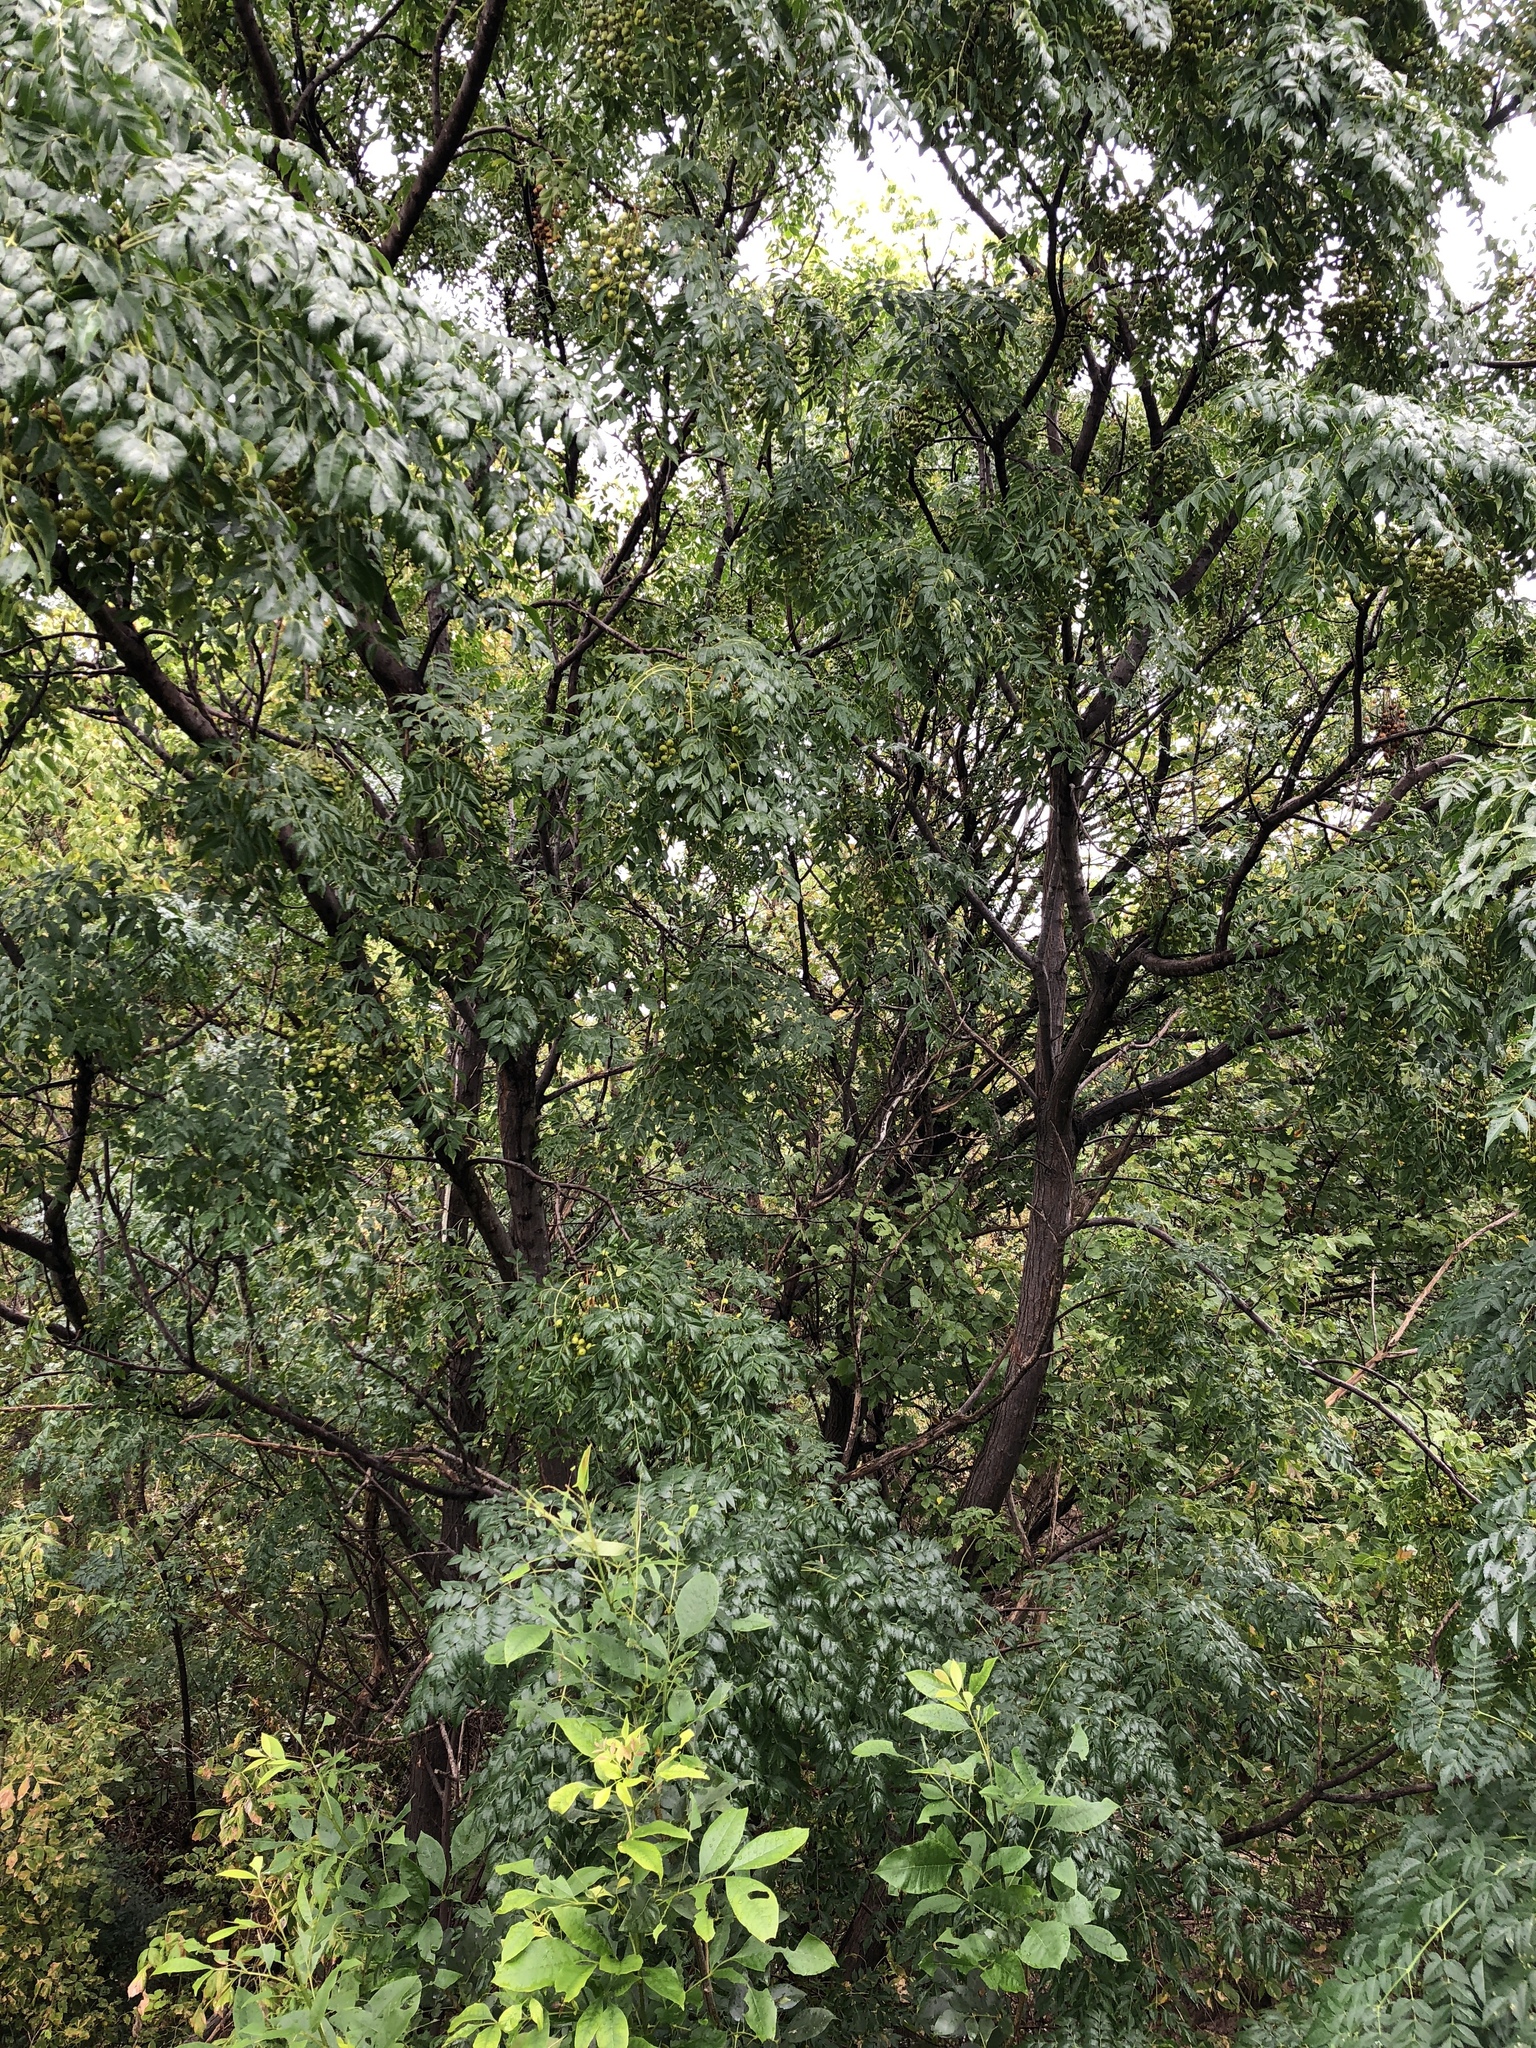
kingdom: Plantae
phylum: Tracheophyta
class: Magnoliopsida
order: Sapindales
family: Meliaceae
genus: Melia
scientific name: Melia azedarach
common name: Chinaberrytree
